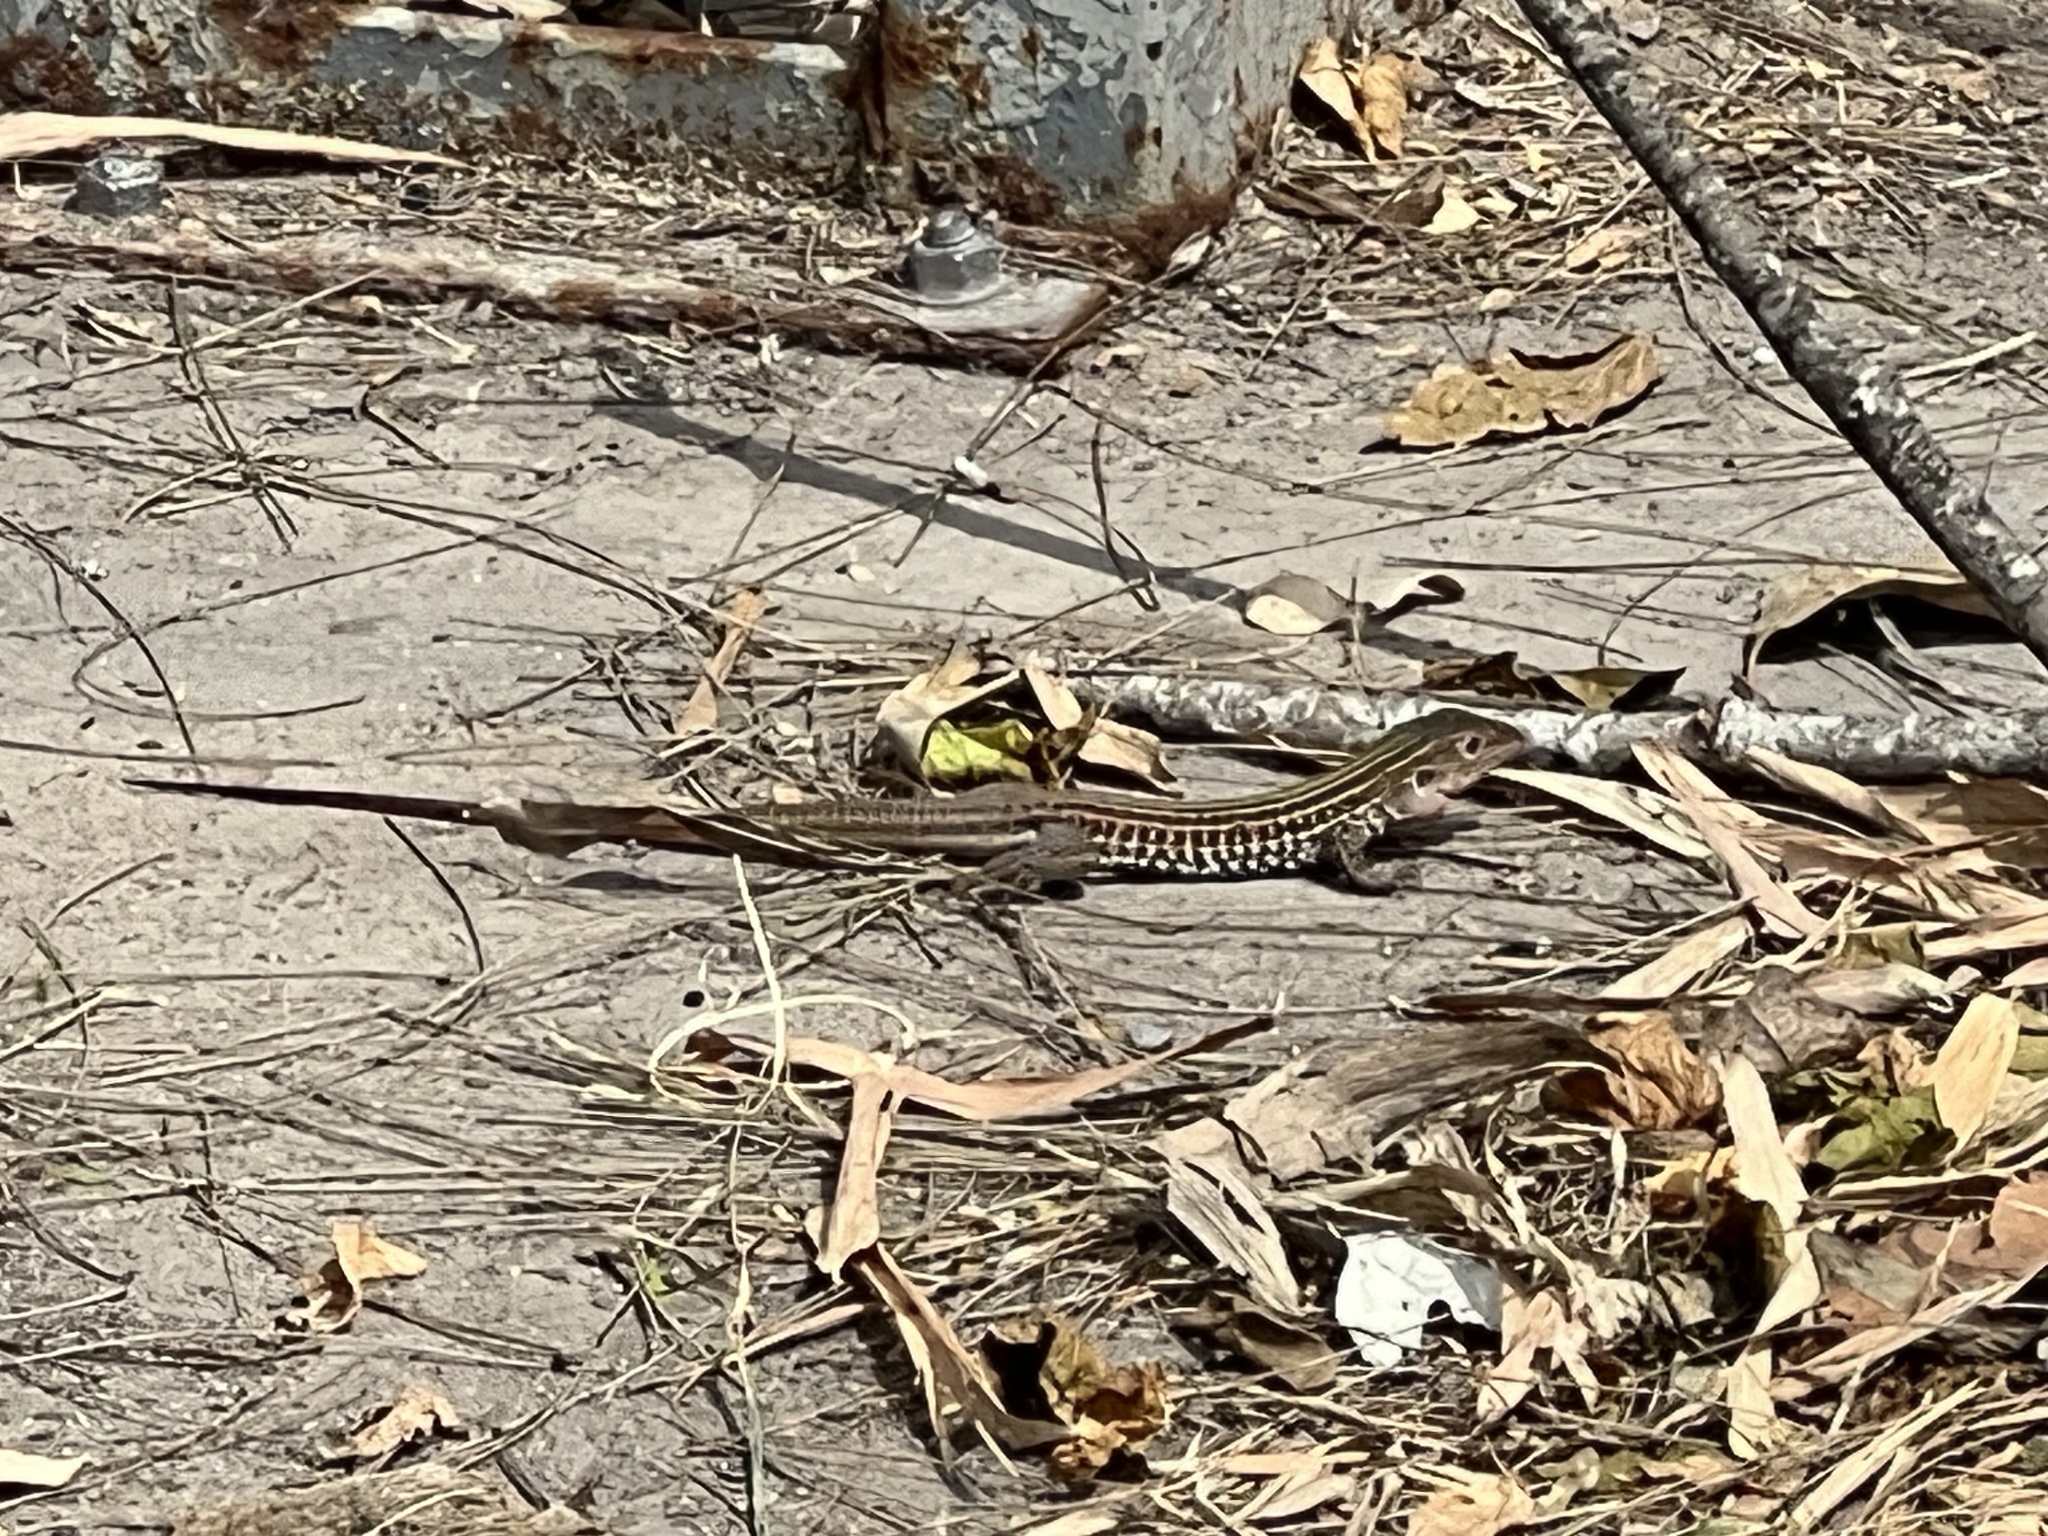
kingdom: Animalia
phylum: Chordata
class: Squamata
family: Teiidae
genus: Aspidoscelis
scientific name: Aspidoscelis gularis
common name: Eastern spotted whiptail
